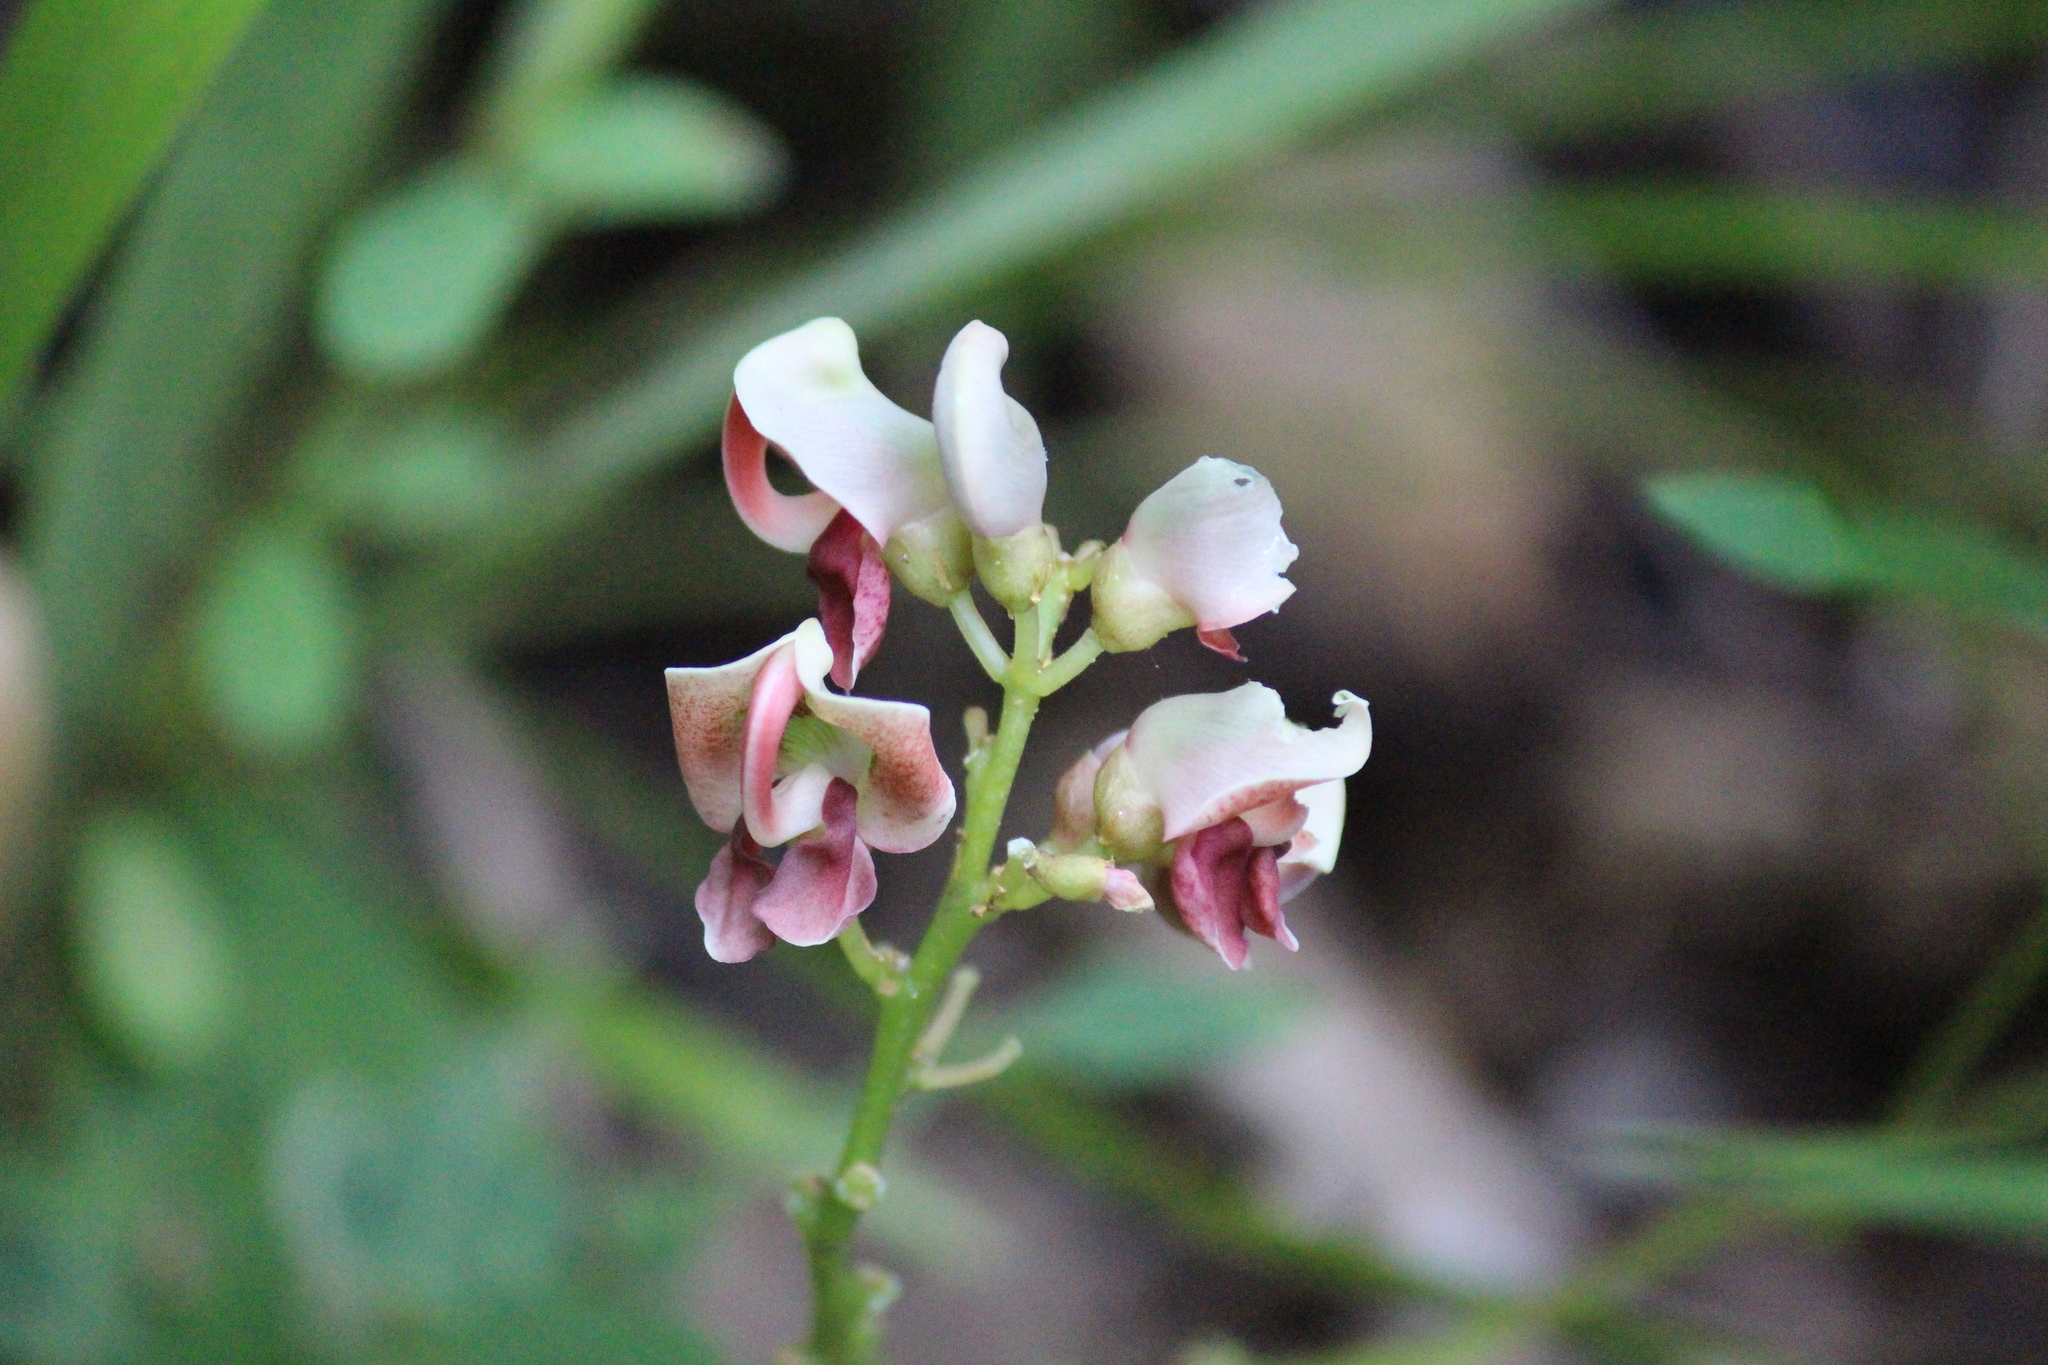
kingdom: Plantae
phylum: Tracheophyta
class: Magnoliopsida
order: Fabales
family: Fabaceae
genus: Apios
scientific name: Apios americana
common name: American potato-bean
